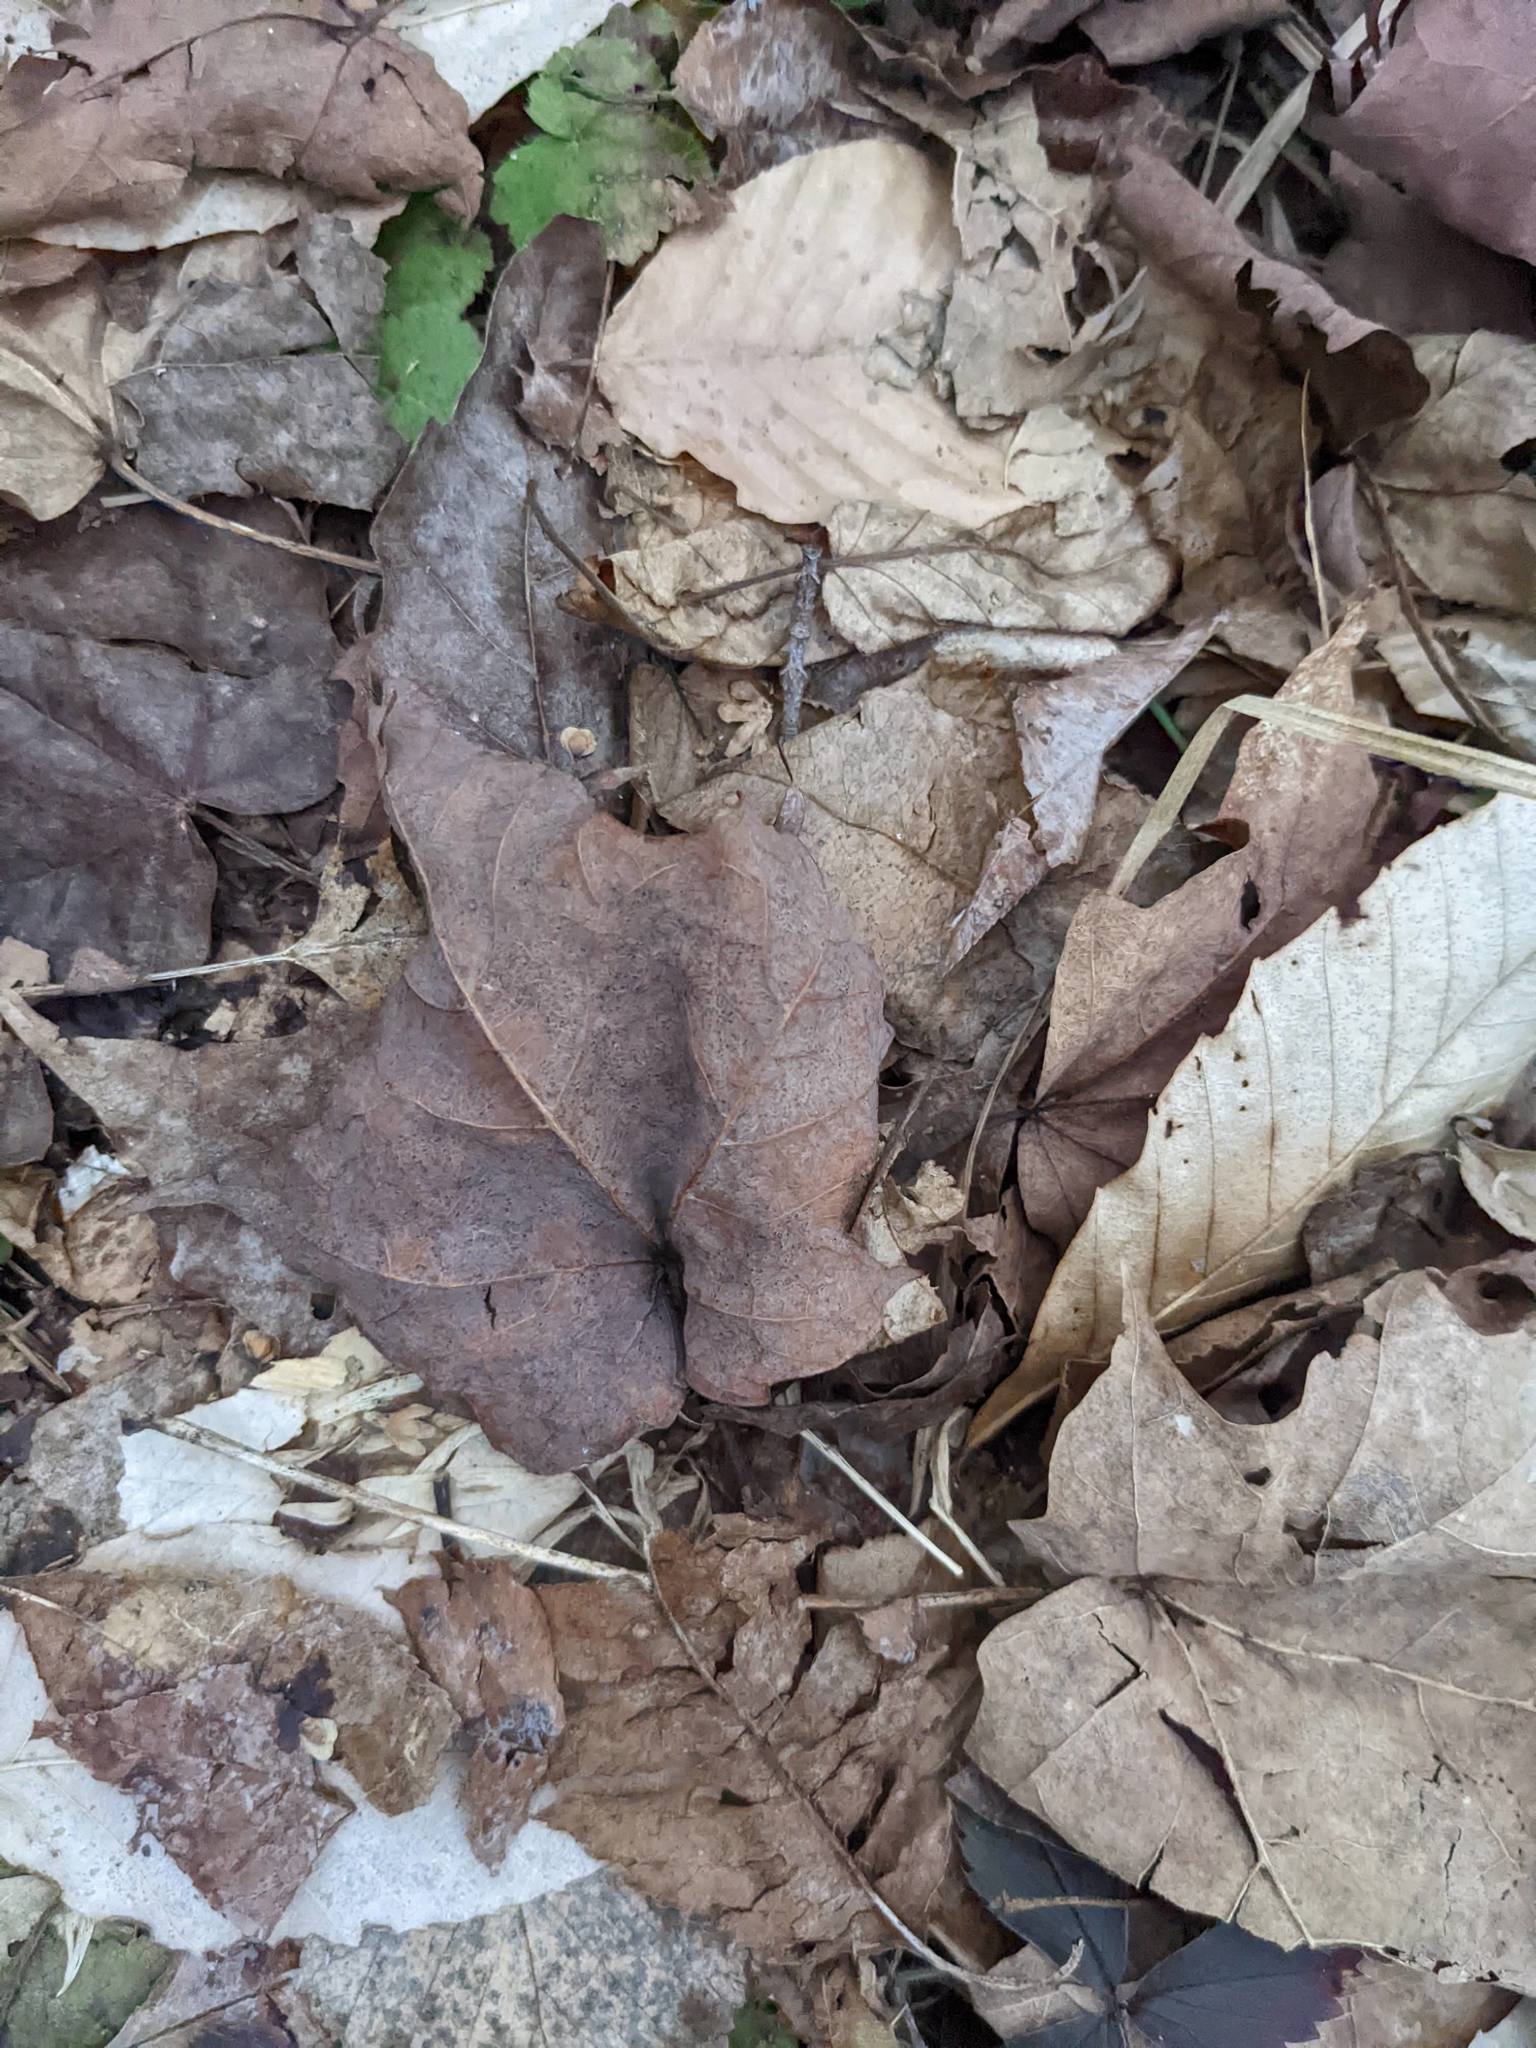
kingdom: Plantae
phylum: Tracheophyta
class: Magnoliopsida
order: Sapindales
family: Sapindaceae
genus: Acer
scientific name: Acer saccharum
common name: Sugar maple
